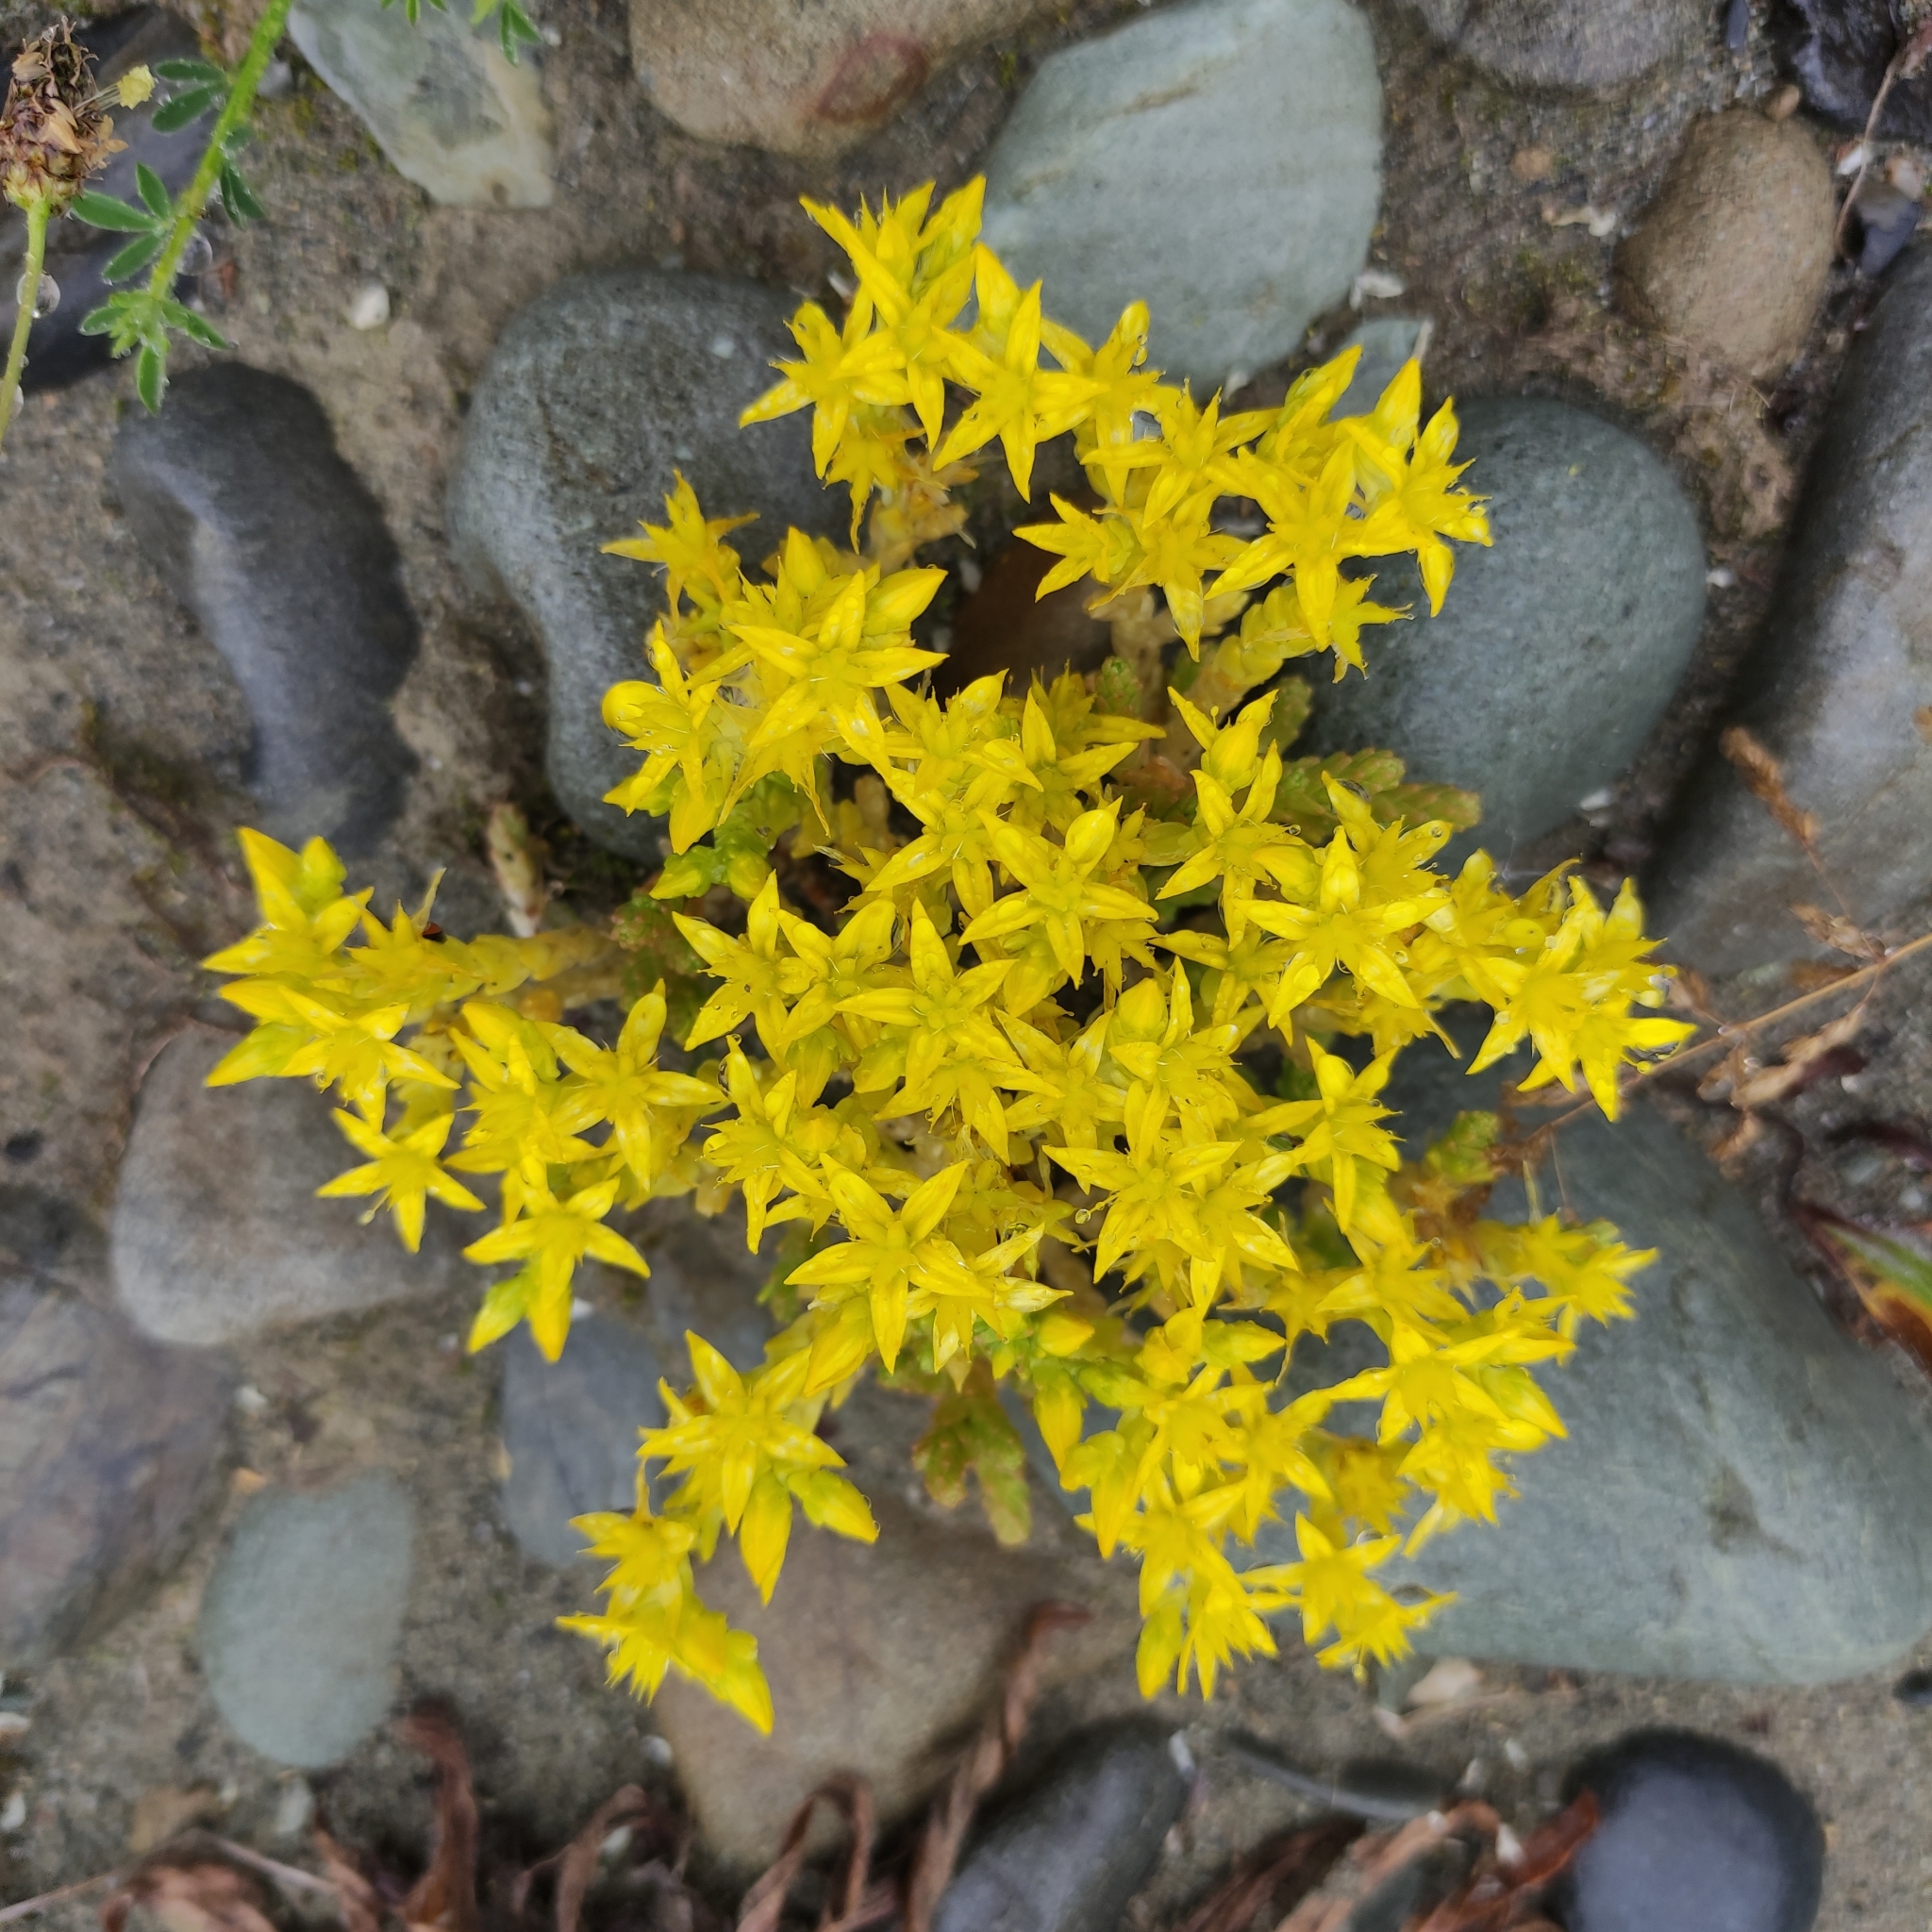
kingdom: Plantae
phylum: Tracheophyta
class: Magnoliopsida
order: Saxifragales
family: Crassulaceae
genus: Sedum
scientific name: Sedum acre
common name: Biting stonecrop
